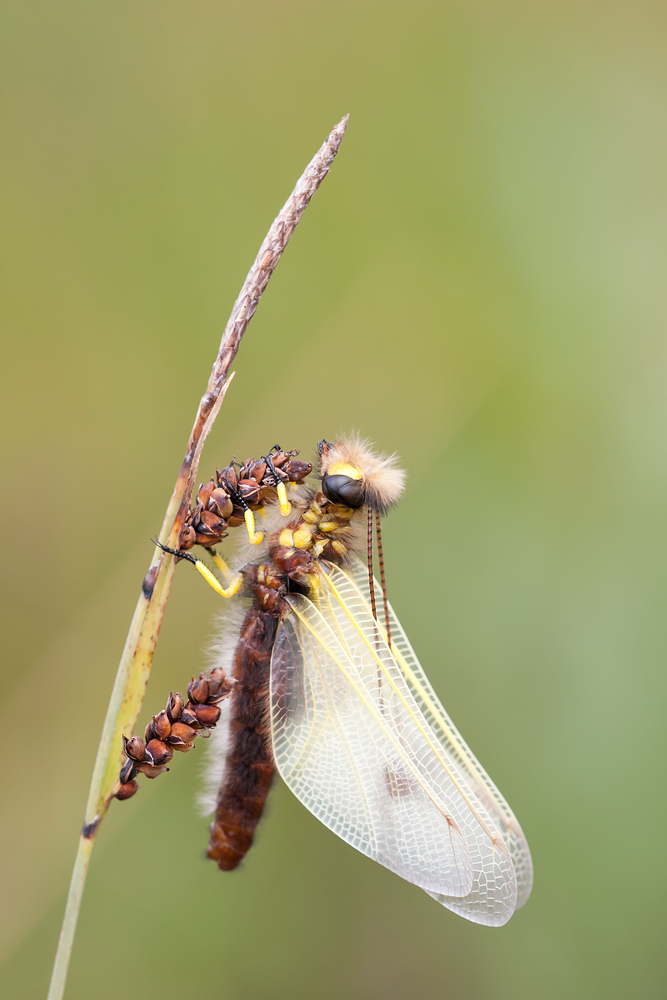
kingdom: Animalia
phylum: Arthropoda
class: Insecta
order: Neuroptera
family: Ascalaphidae
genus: Libelloides
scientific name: Libelloides longicornis
